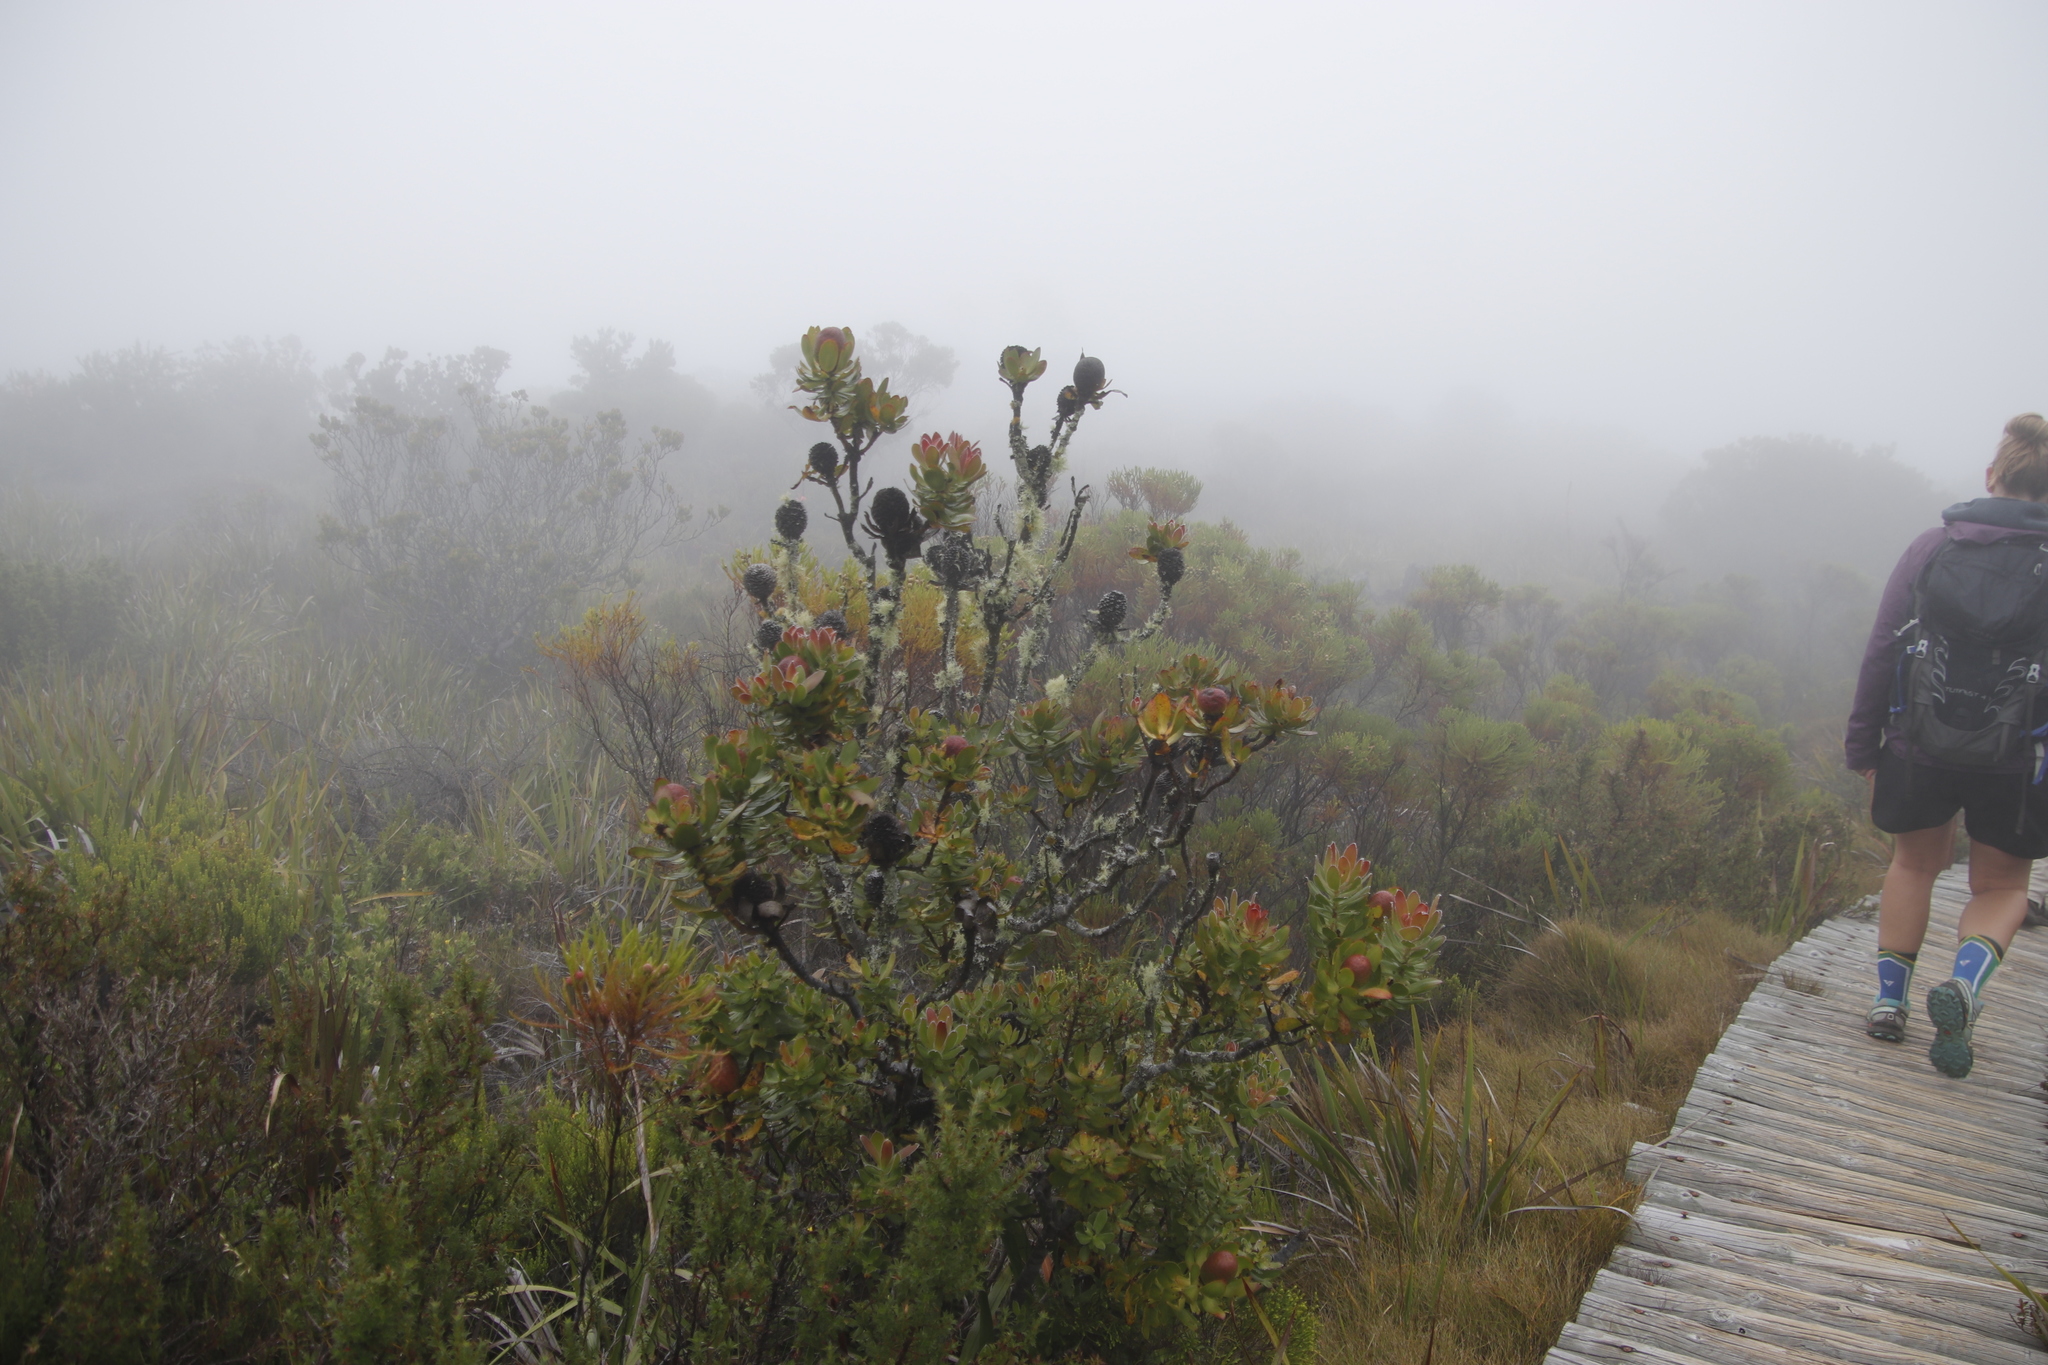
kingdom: Plantae
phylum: Tracheophyta
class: Magnoliopsida
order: Proteales
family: Proteaceae
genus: Leucadendron
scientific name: Leucadendron strobilinum
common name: Mountain rose
